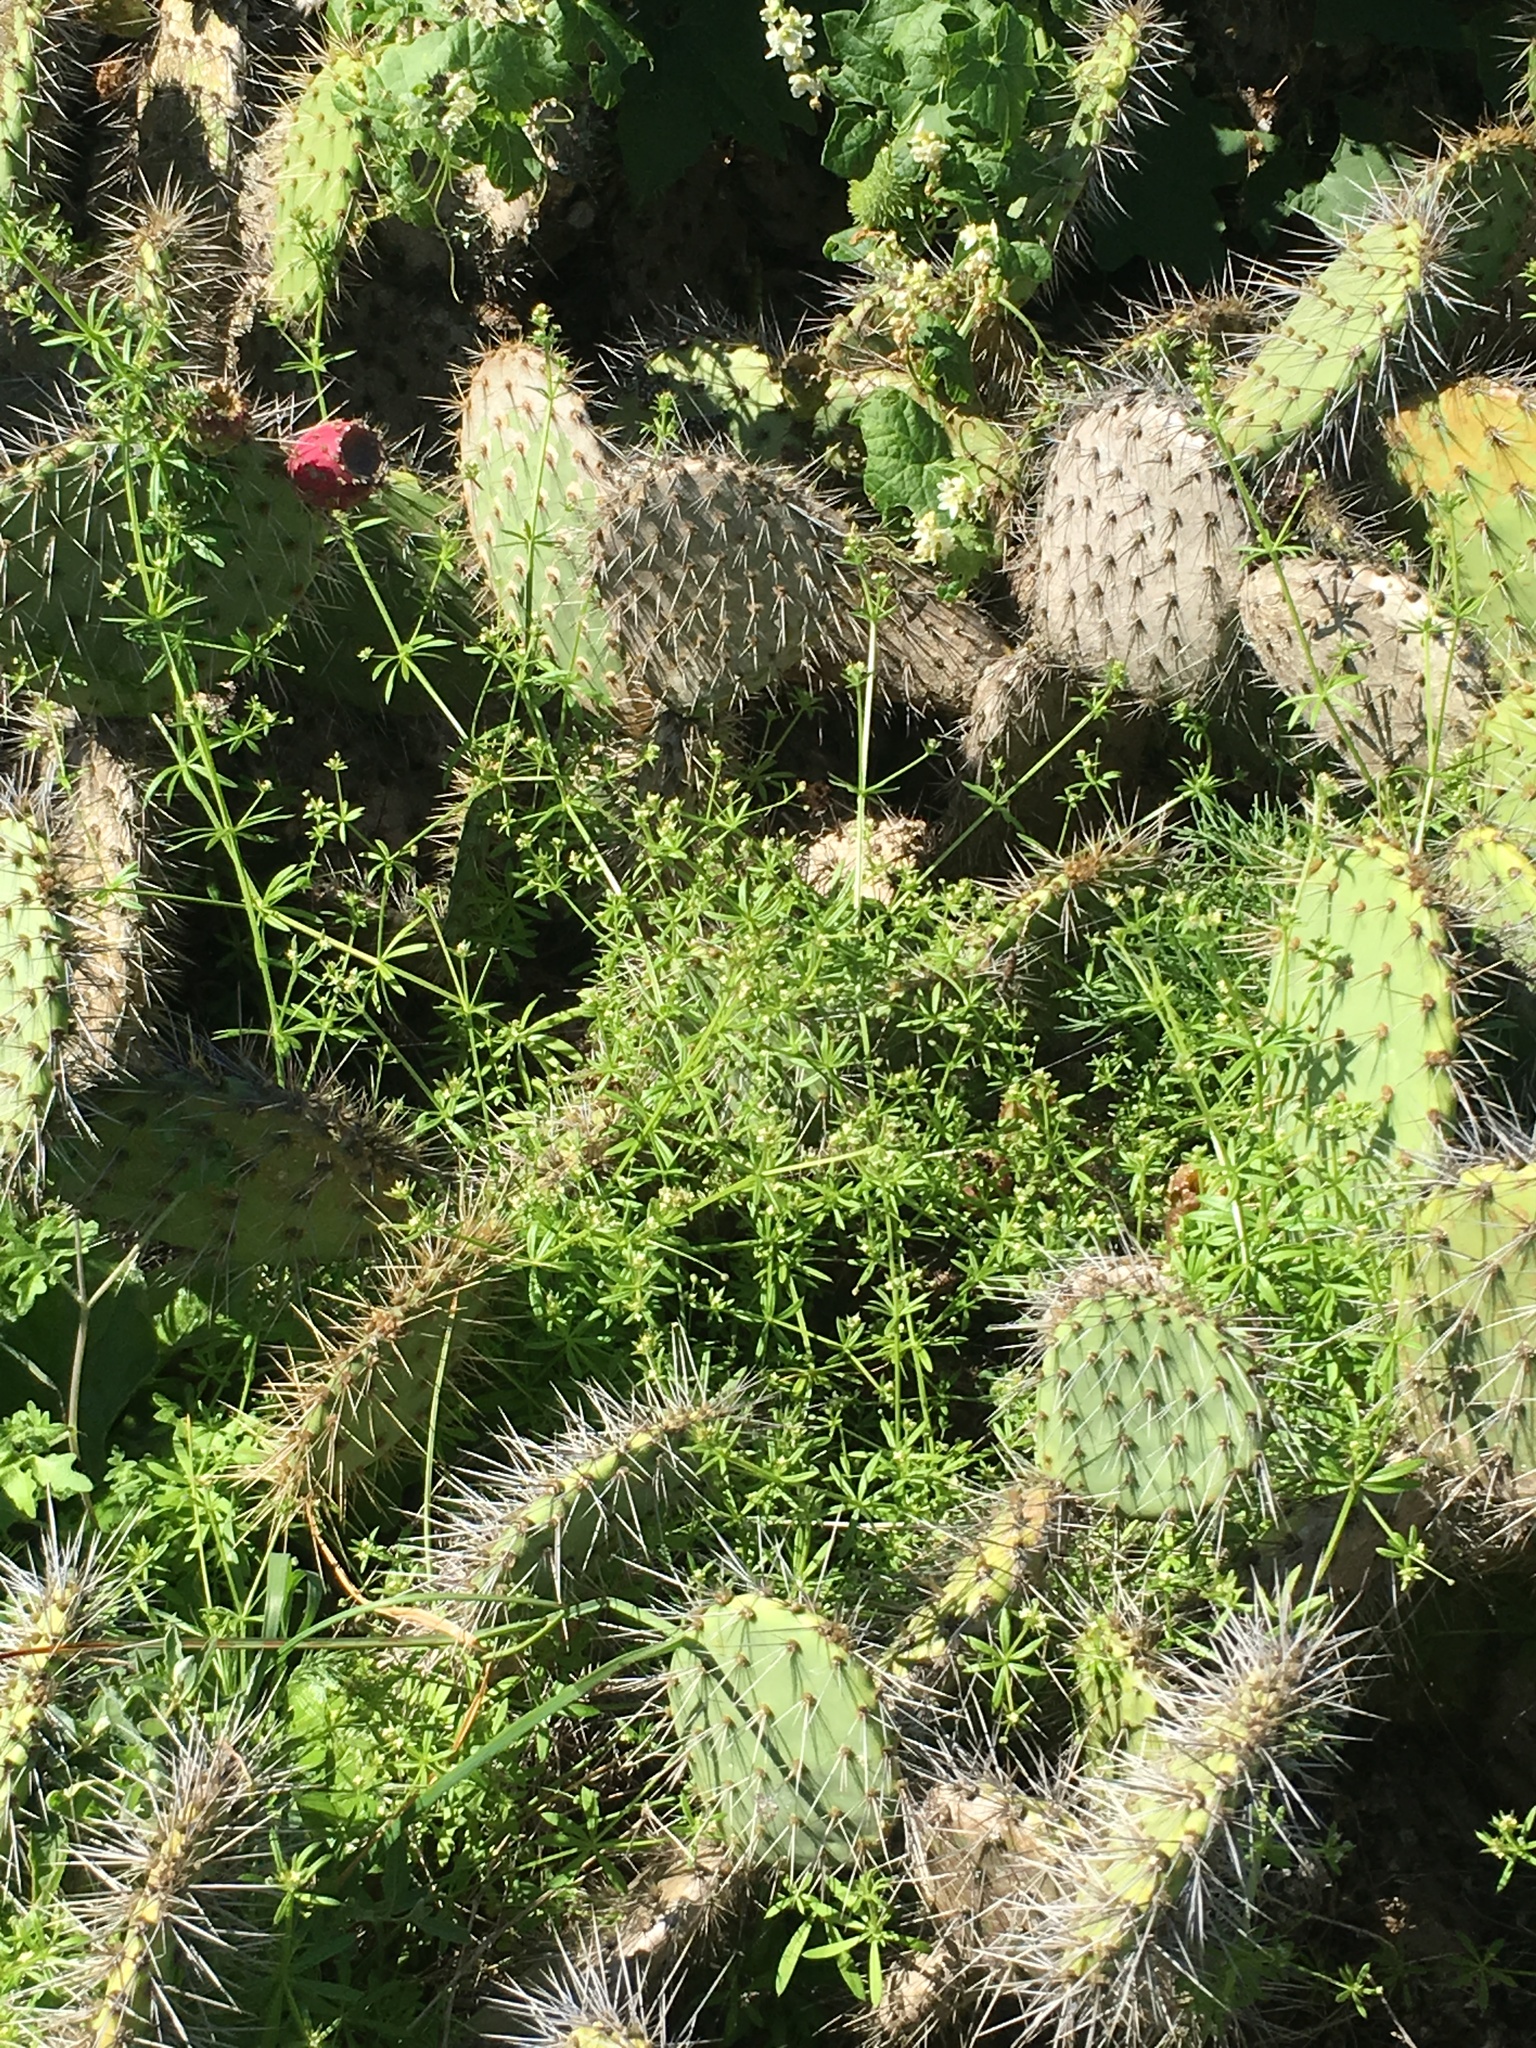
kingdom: Plantae
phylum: Tracheophyta
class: Magnoliopsida
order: Gentianales
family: Rubiaceae
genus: Galium
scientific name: Galium aparine
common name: Cleavers
